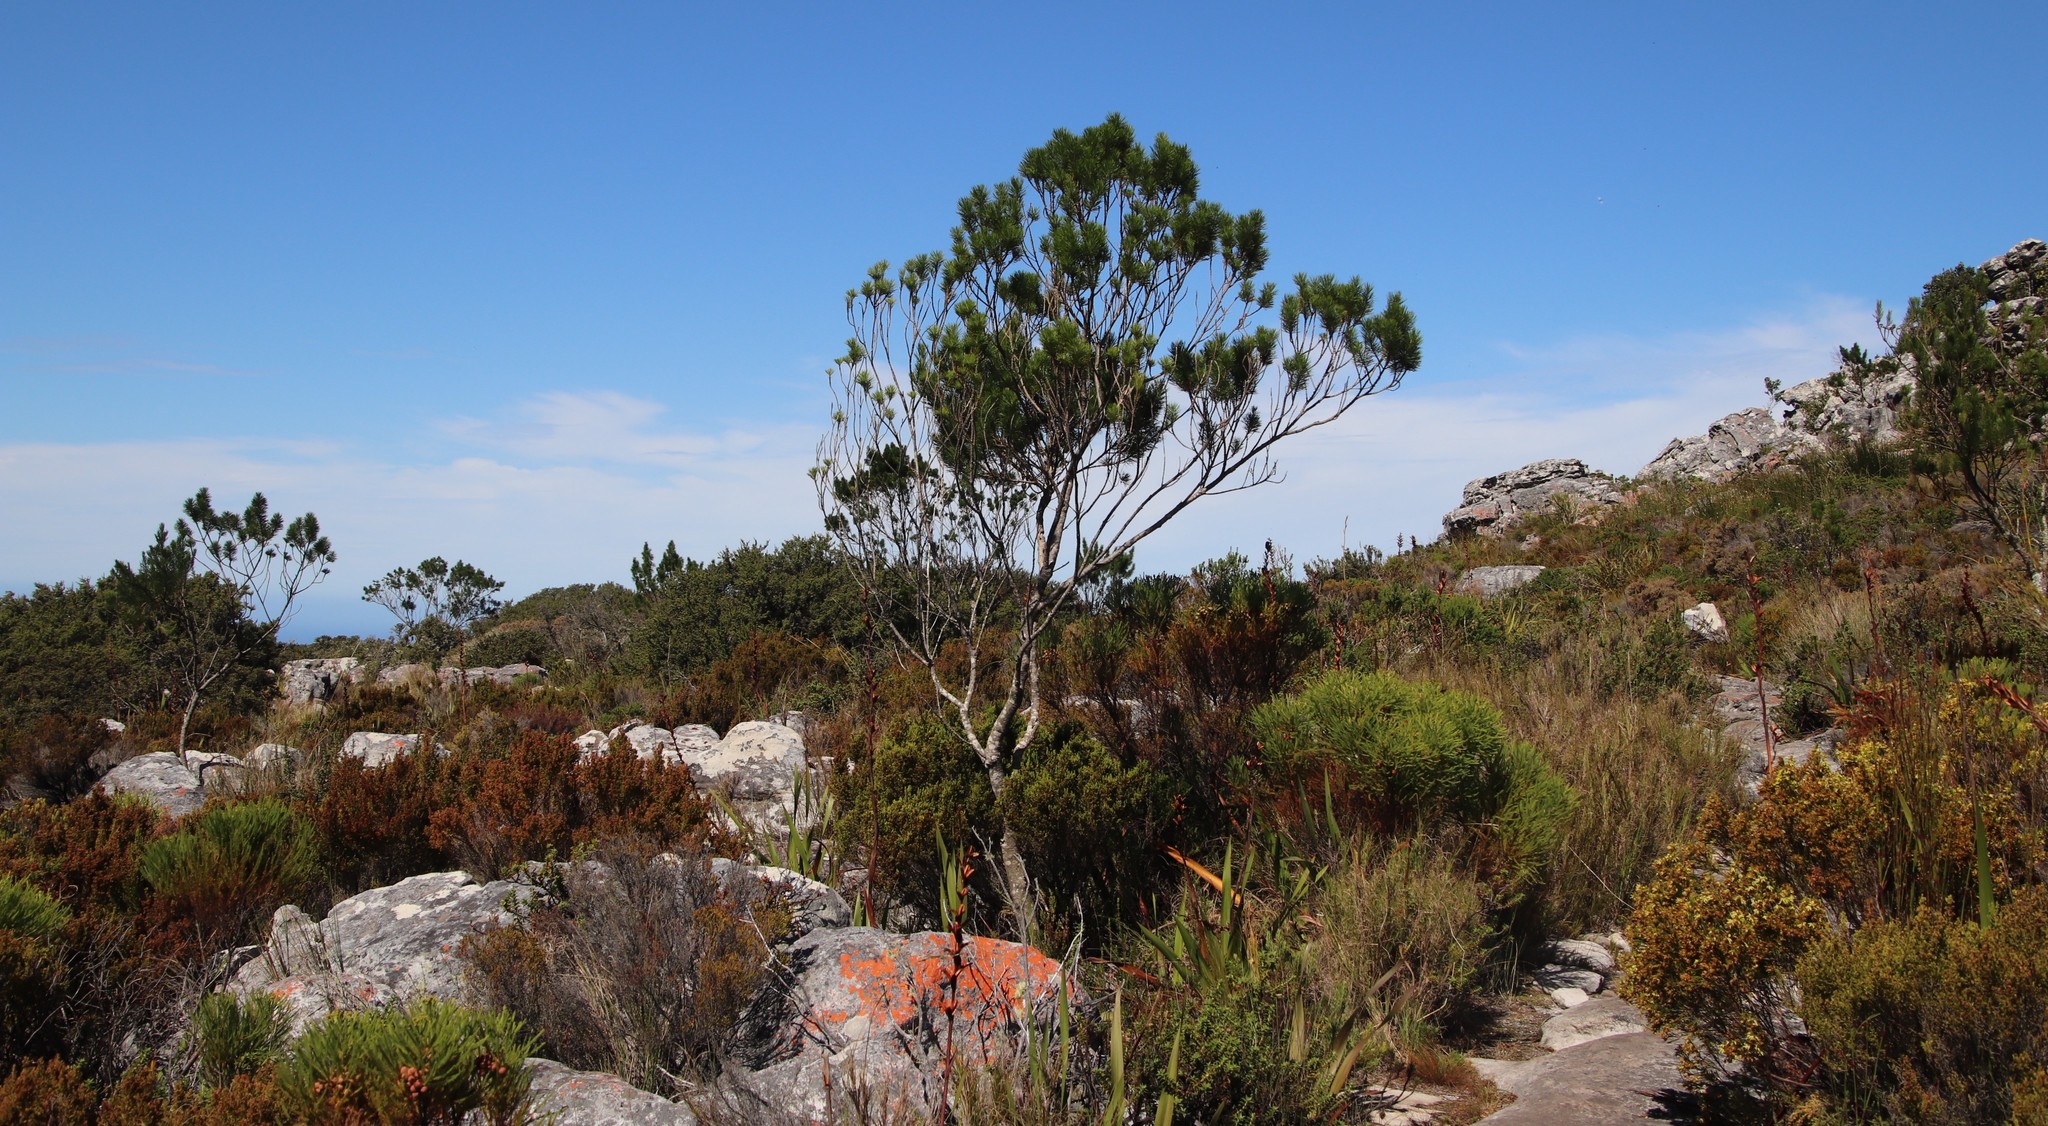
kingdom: Plantae
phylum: Tracheophyta
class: Magnoliopsida
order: Fabales
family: Fabaceae
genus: Psoralea
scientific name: Psoralea pinnata
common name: African scurfpea
